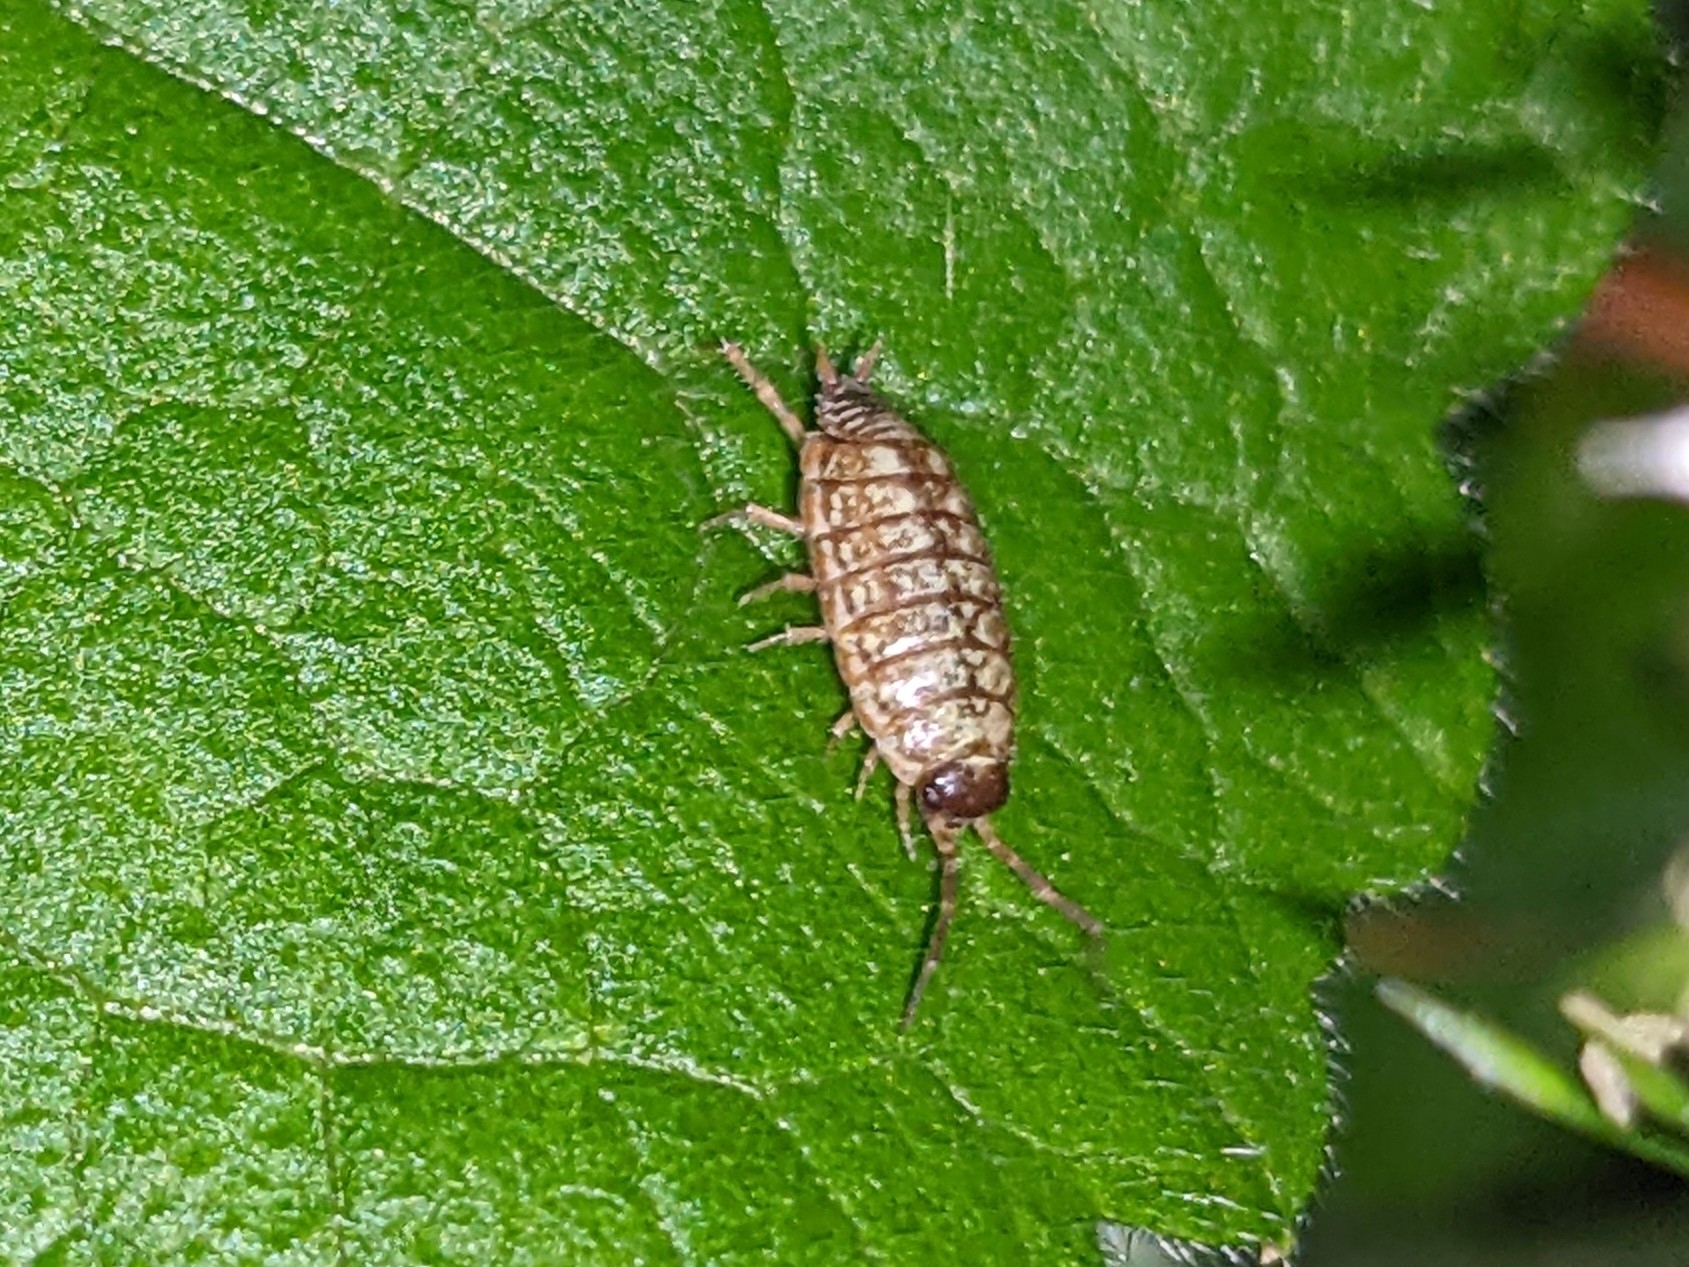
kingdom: Animalia
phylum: Arthropoda
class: Malacostraca
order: Isopoda
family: Philosciidae
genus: Philoscia
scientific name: Philoscia muscorum
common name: Common striped woodlouse
